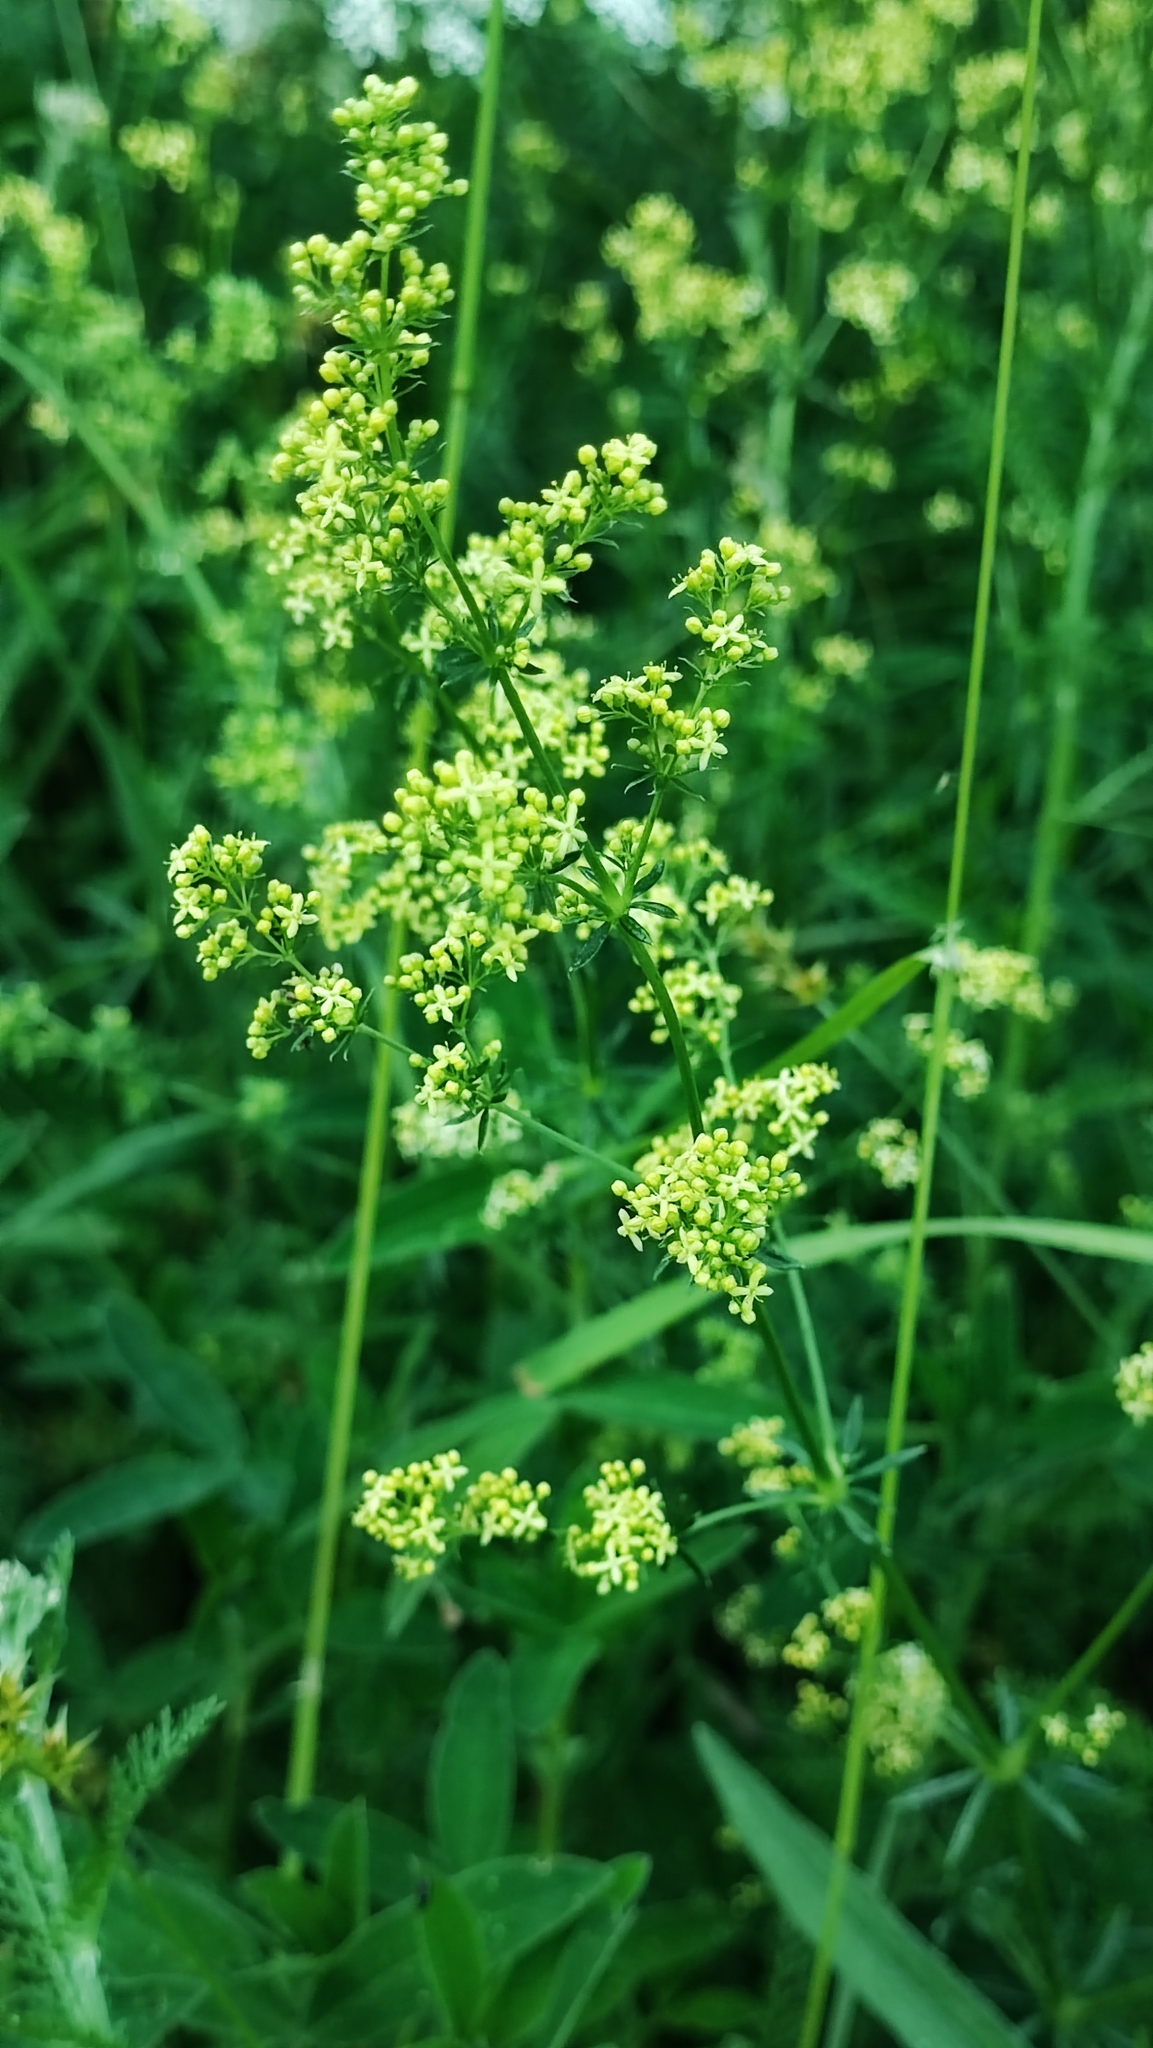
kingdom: Plantae
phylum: Tracheophyta
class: Magnoliopsida
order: Gentianales
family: Rubiaceae
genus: Galium
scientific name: Galium verum
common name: Lady's bedstraw
